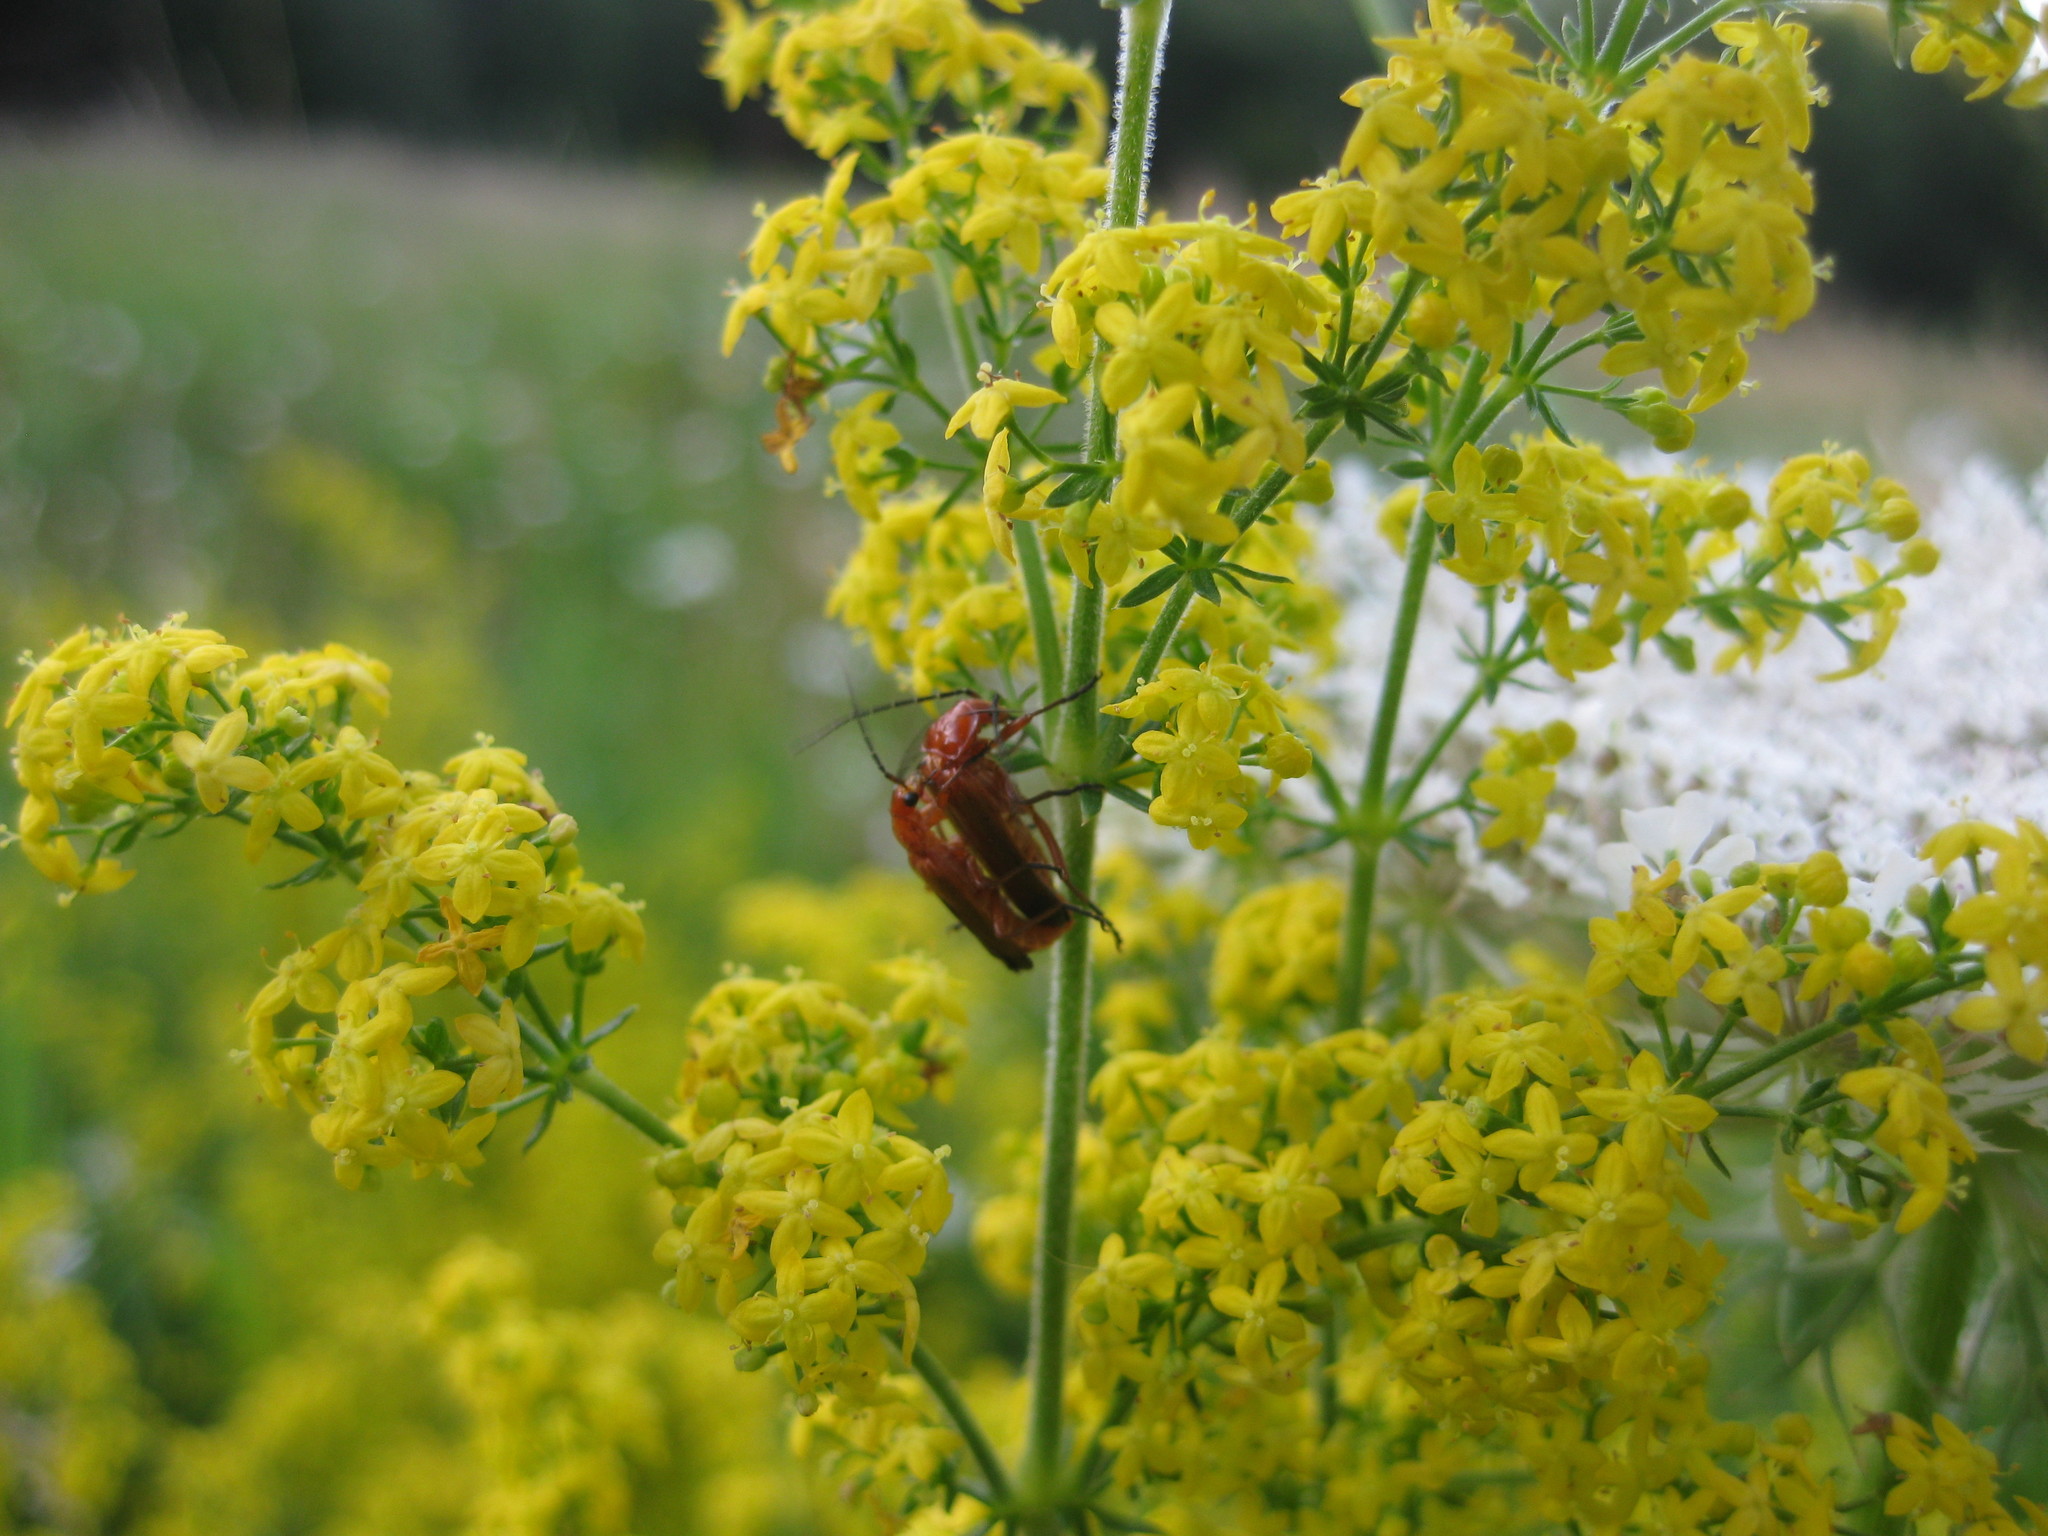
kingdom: Animalia
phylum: Arthropoda
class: Insecta
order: Coleoptera
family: Cantharidae
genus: Rhagonycha
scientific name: Rhagonycha fulva
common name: Common red soldier beetle
